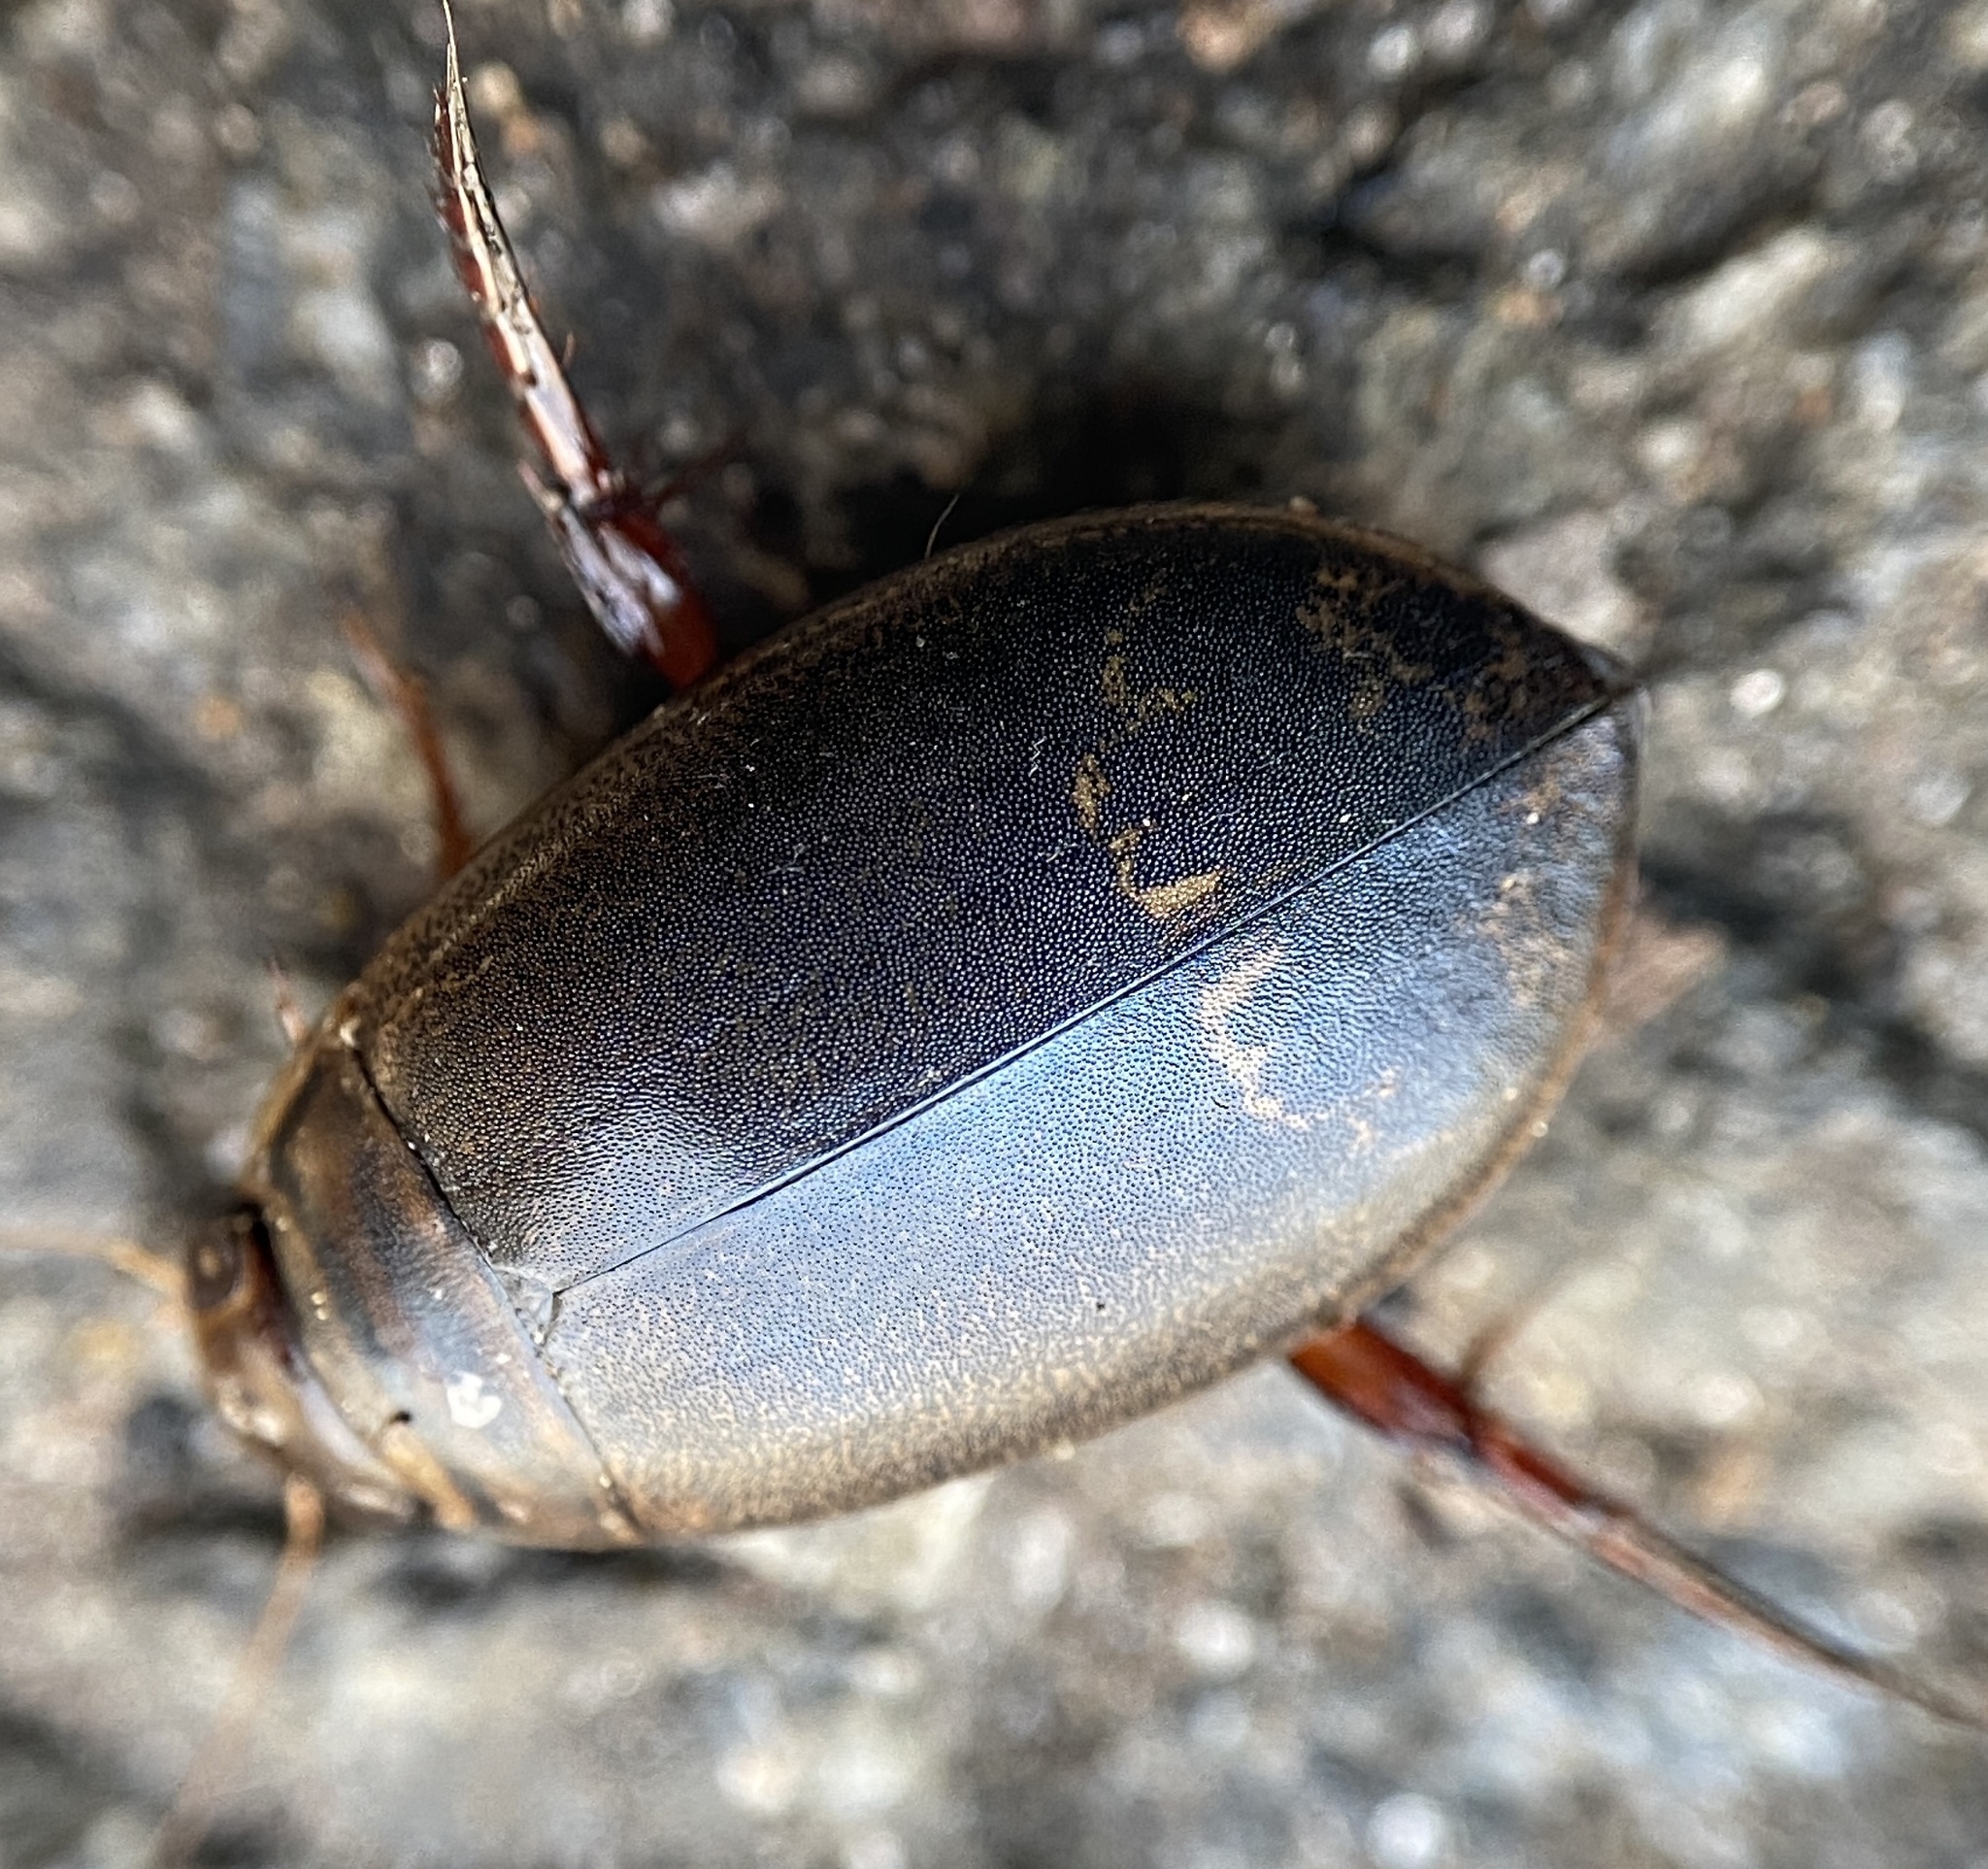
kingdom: Animalia
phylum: Arthropoda
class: Insecta
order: Coleoptera
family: Dytiscidae
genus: Acilius
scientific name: Acilius
